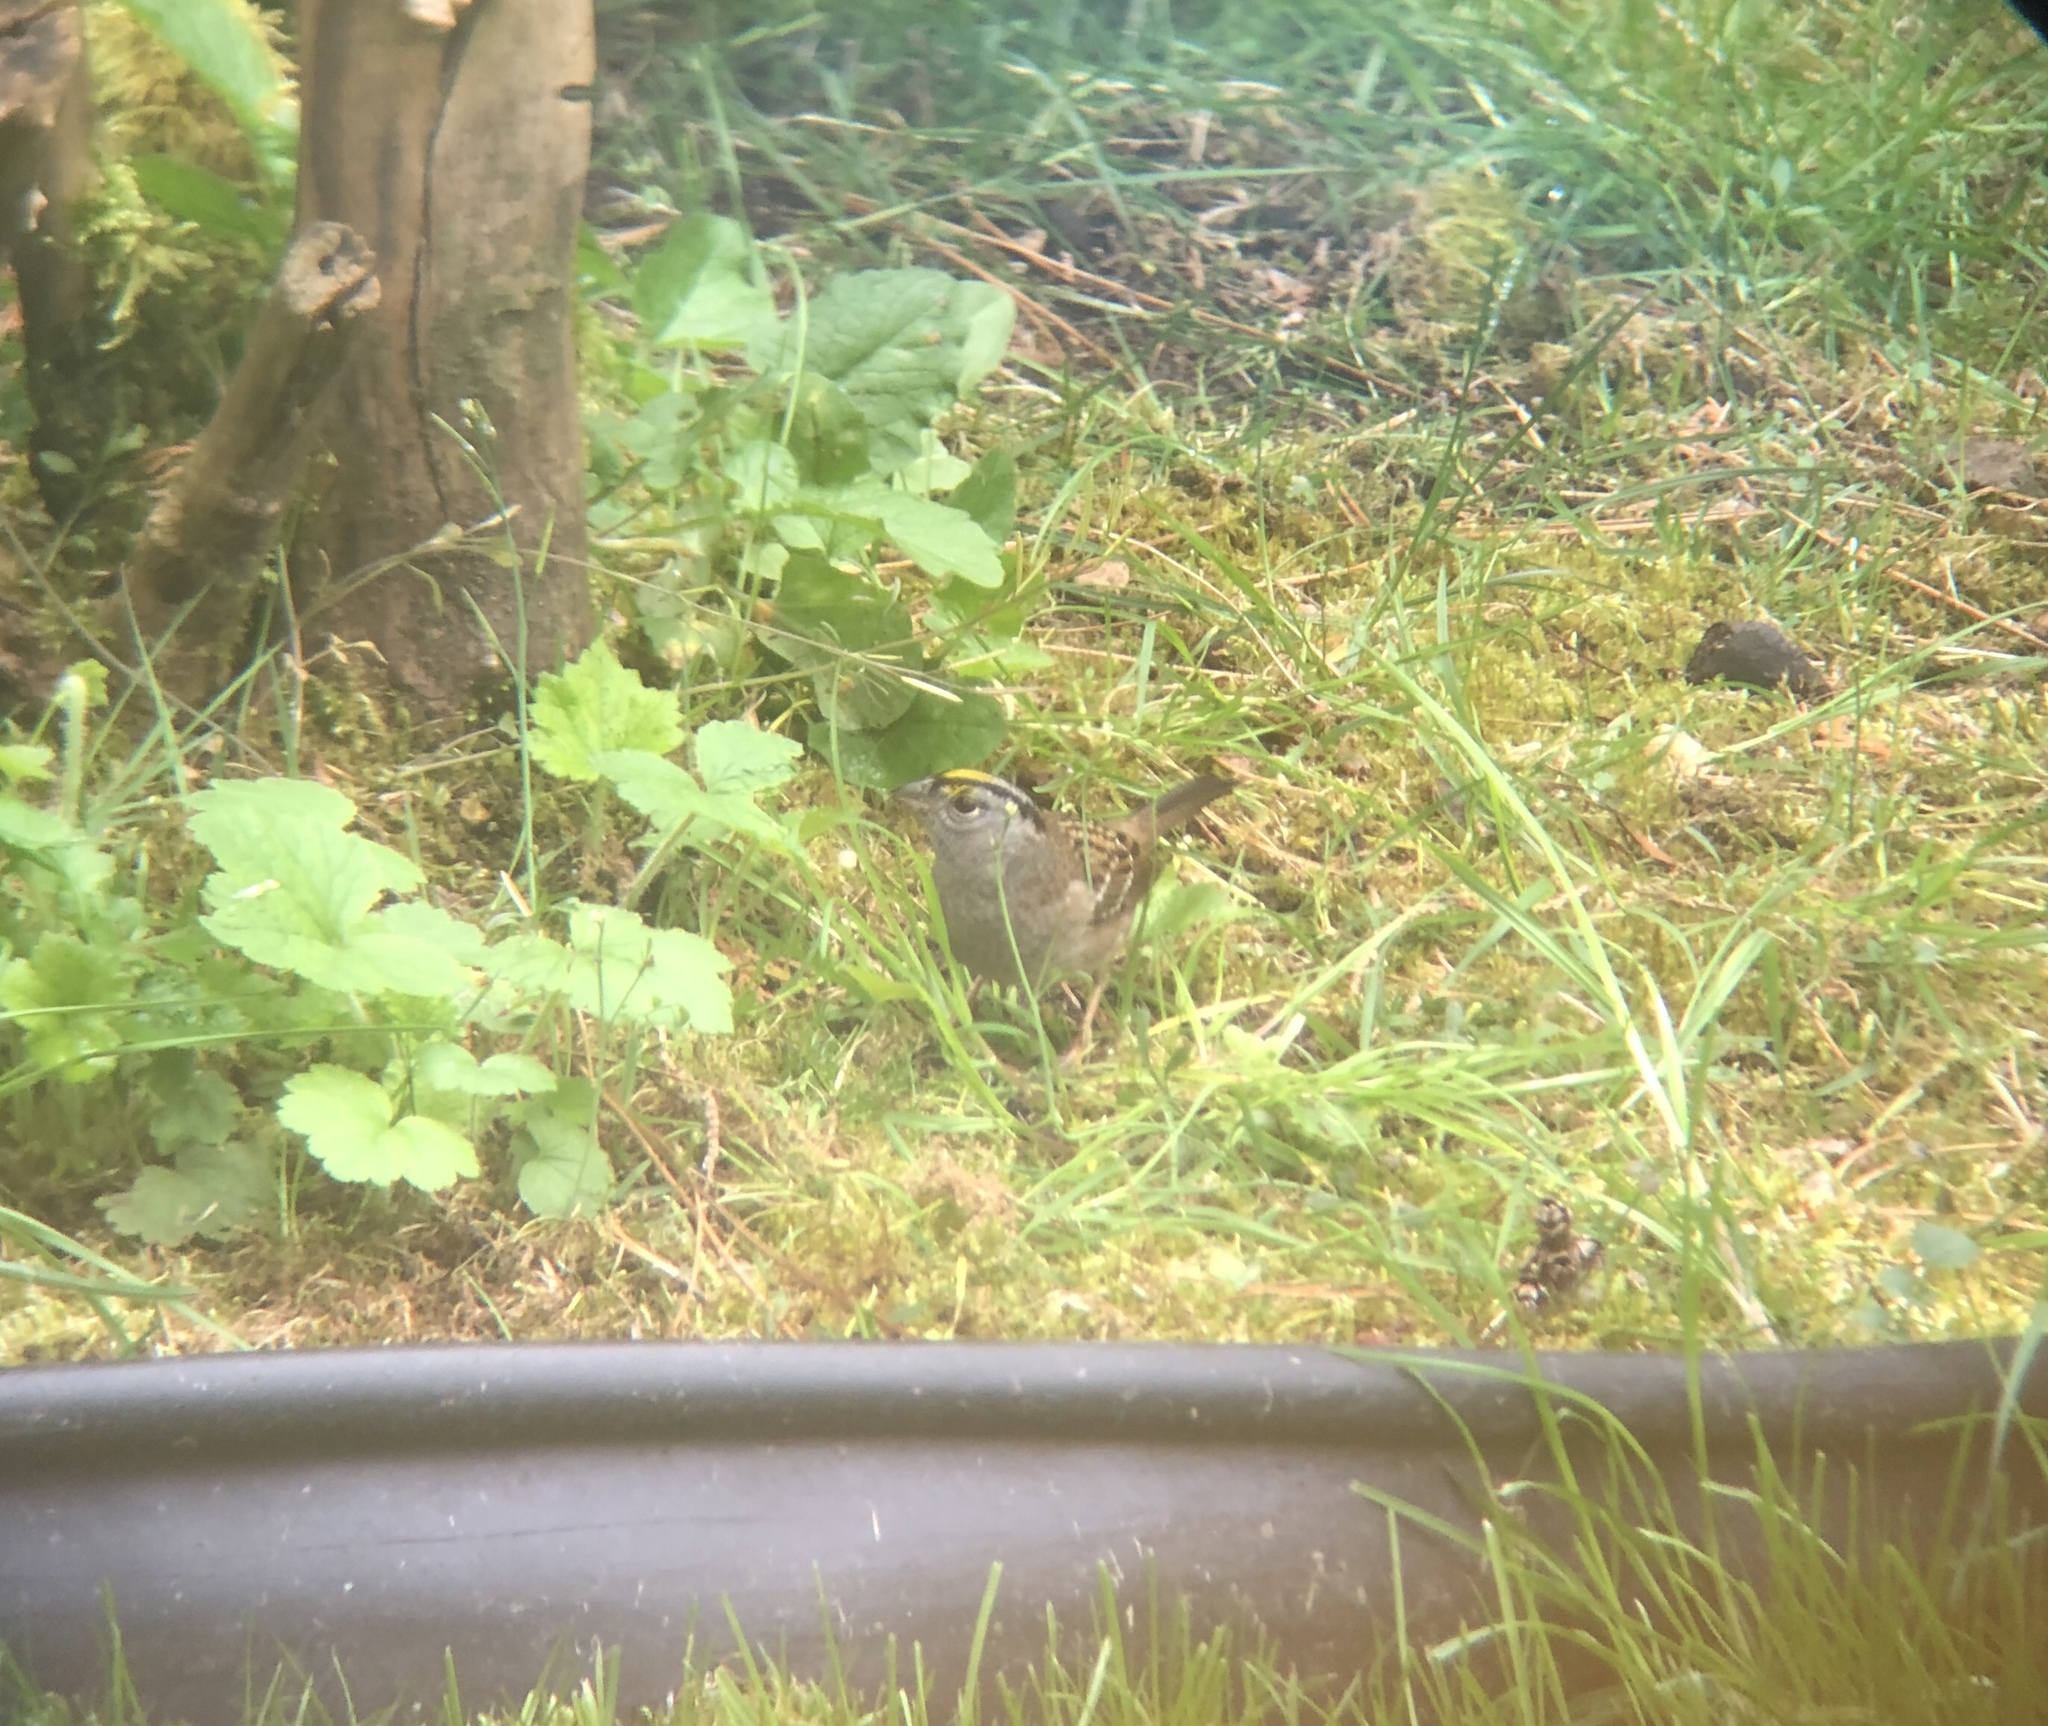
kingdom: Animalia
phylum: Chordata
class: Aves
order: Passeriformes
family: Passerellidae
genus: Zonotrichia
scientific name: Zonotrichia atricapilla
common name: Golden-crowned sparrow
